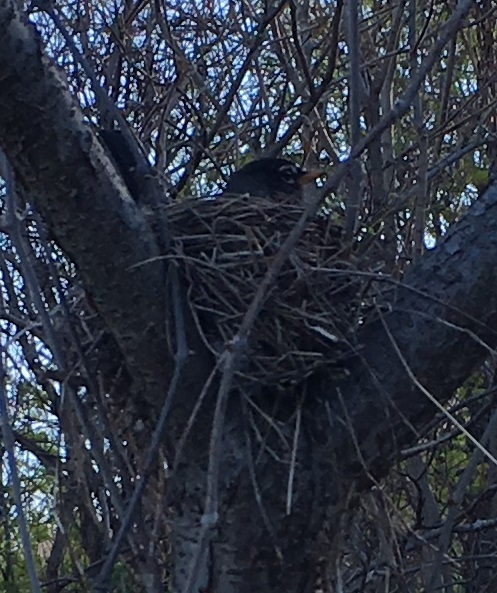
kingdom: Animalia
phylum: Chordata
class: Aves
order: Passeriformes
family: Turdidae
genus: Turdus
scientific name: Turdus migratorius
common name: American robin
